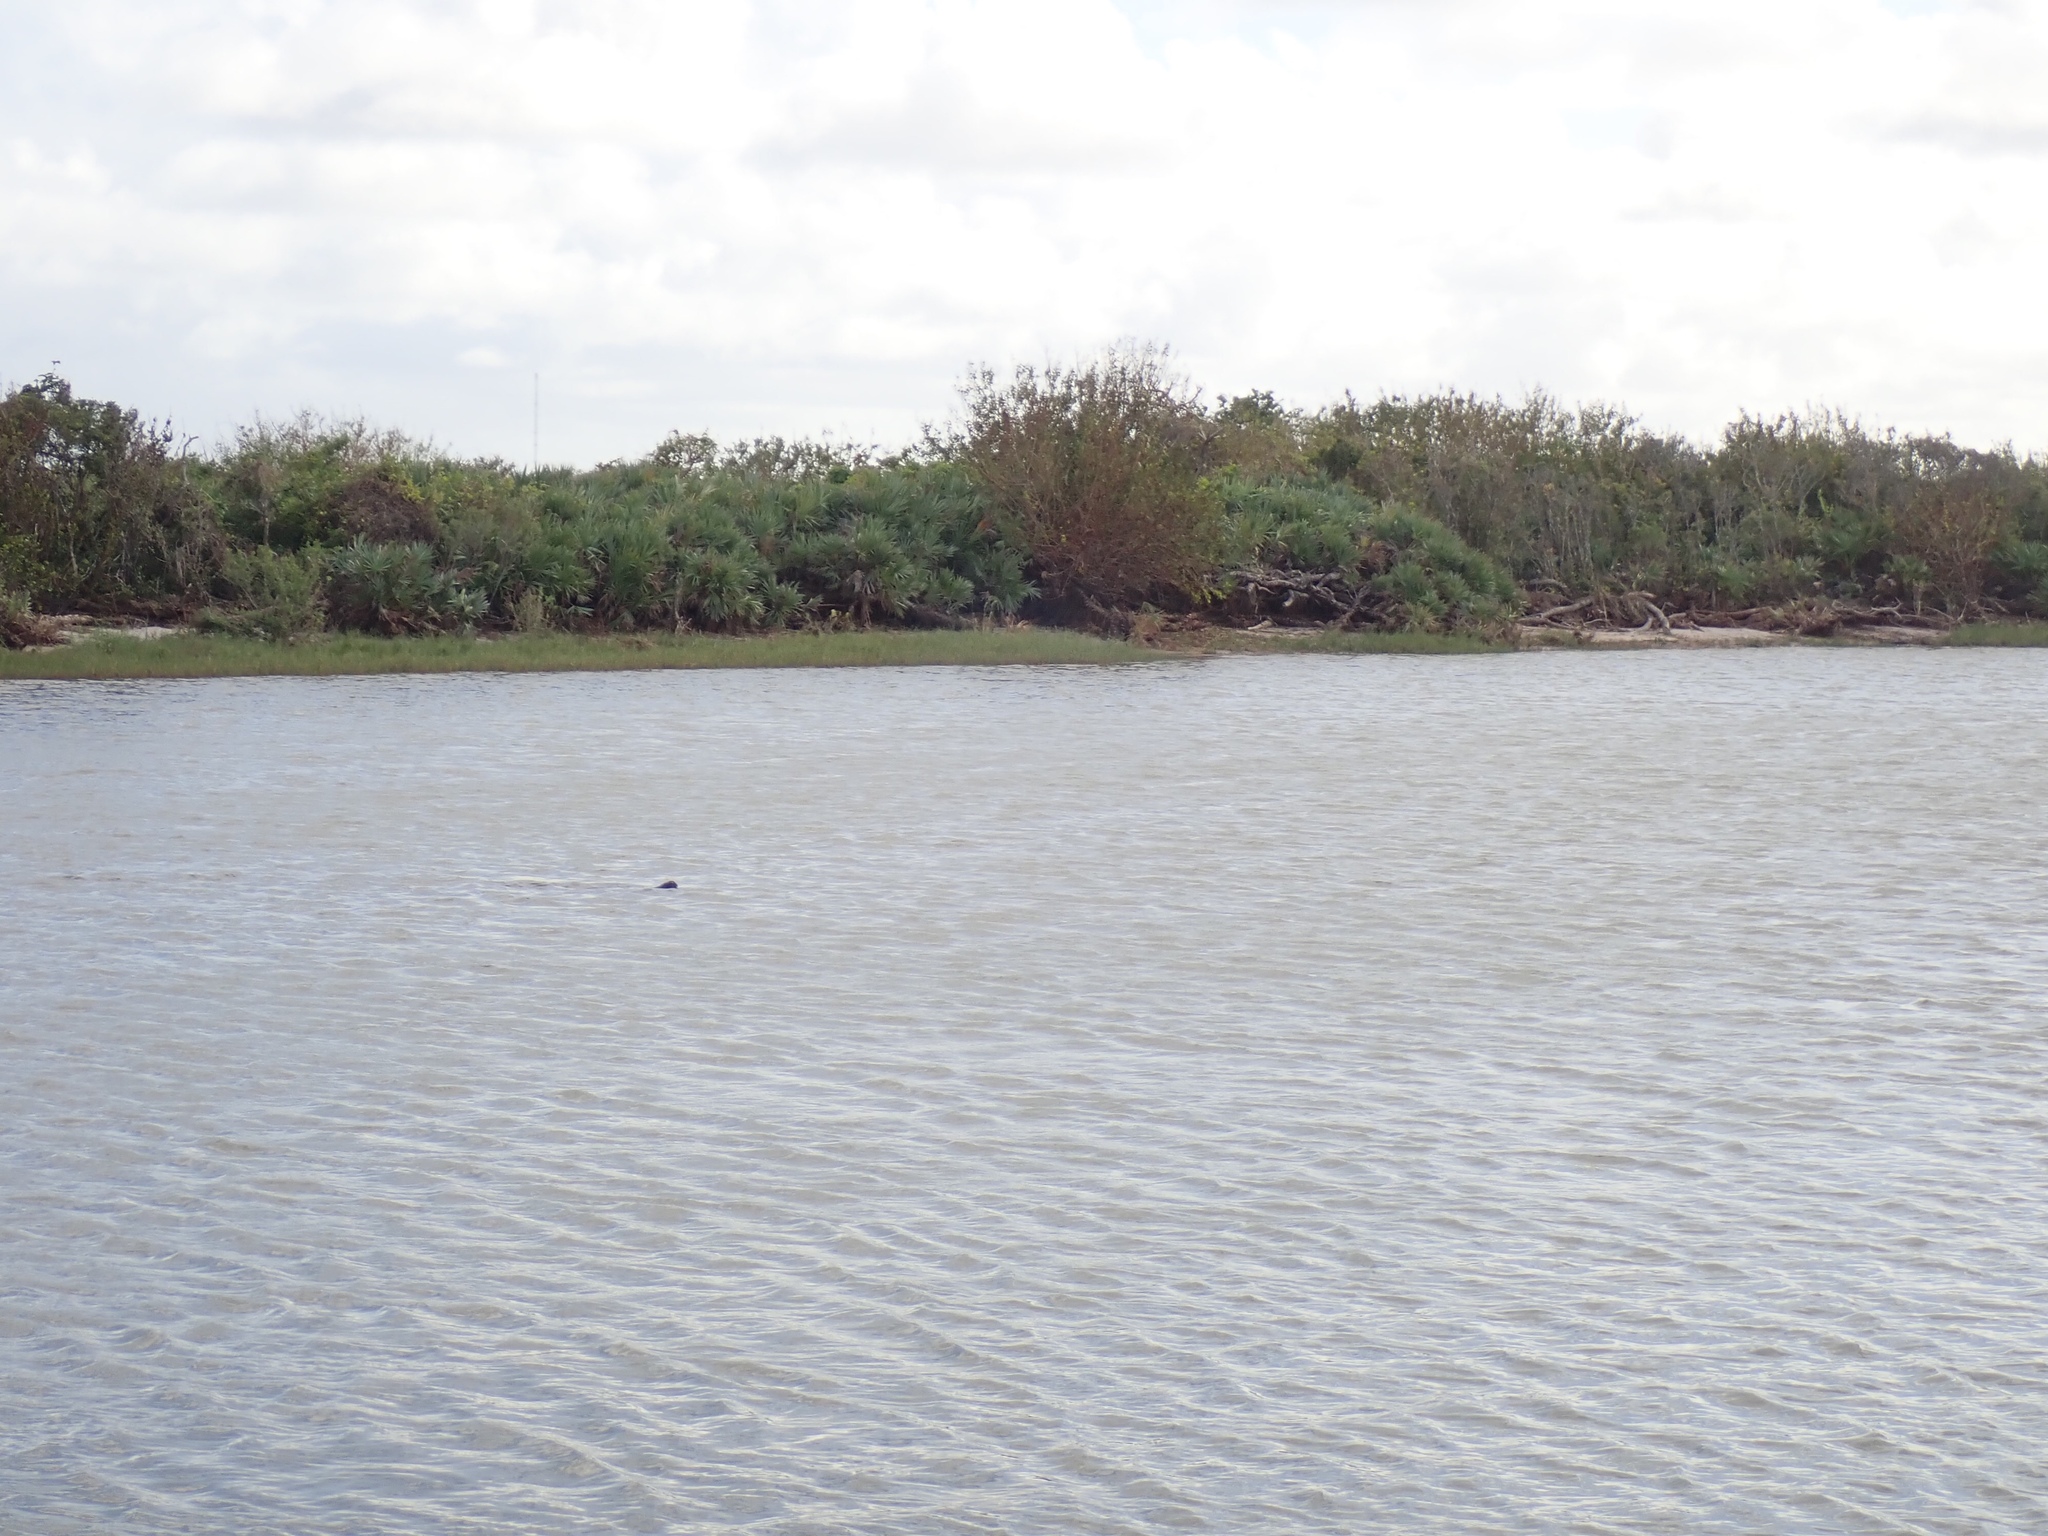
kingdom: Animalia
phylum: Chordata
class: Mammalia
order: Sirenia
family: Trichechidae
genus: Trichechus
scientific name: Trichechus manatus
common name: West indian manatee
